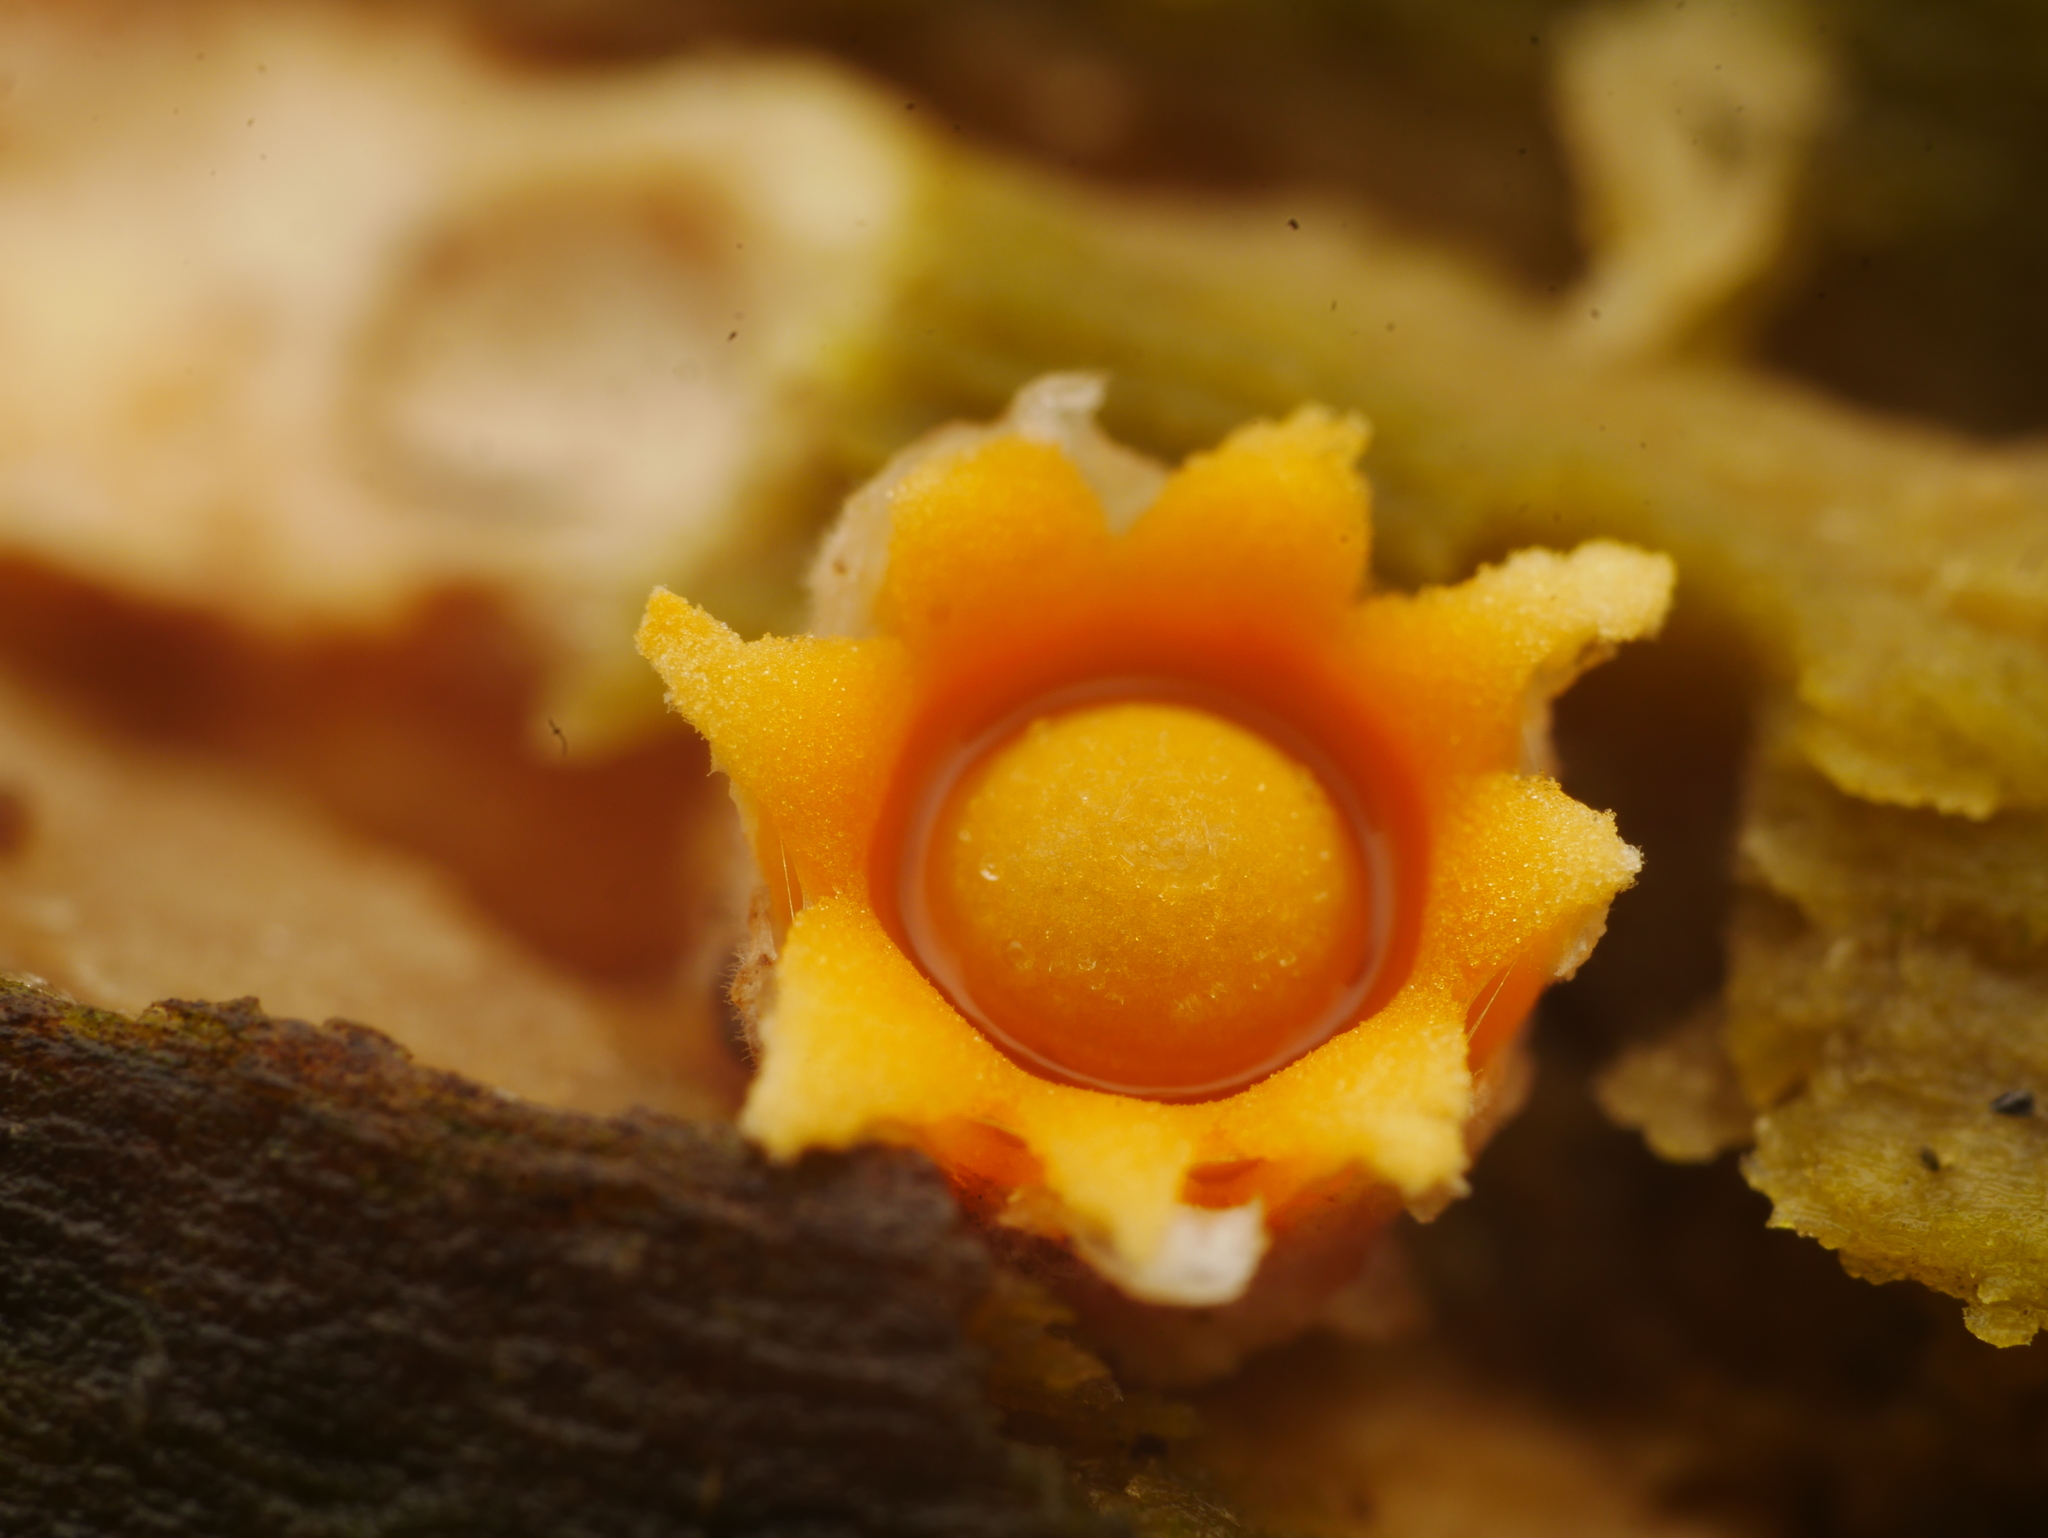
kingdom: Fungi
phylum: Basidiomycota
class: Agaricomycetes
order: Geastrales
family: Geastraceae
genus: Sphaerobolus
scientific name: Sphaerobolus stellatus
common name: Cannon fungus
